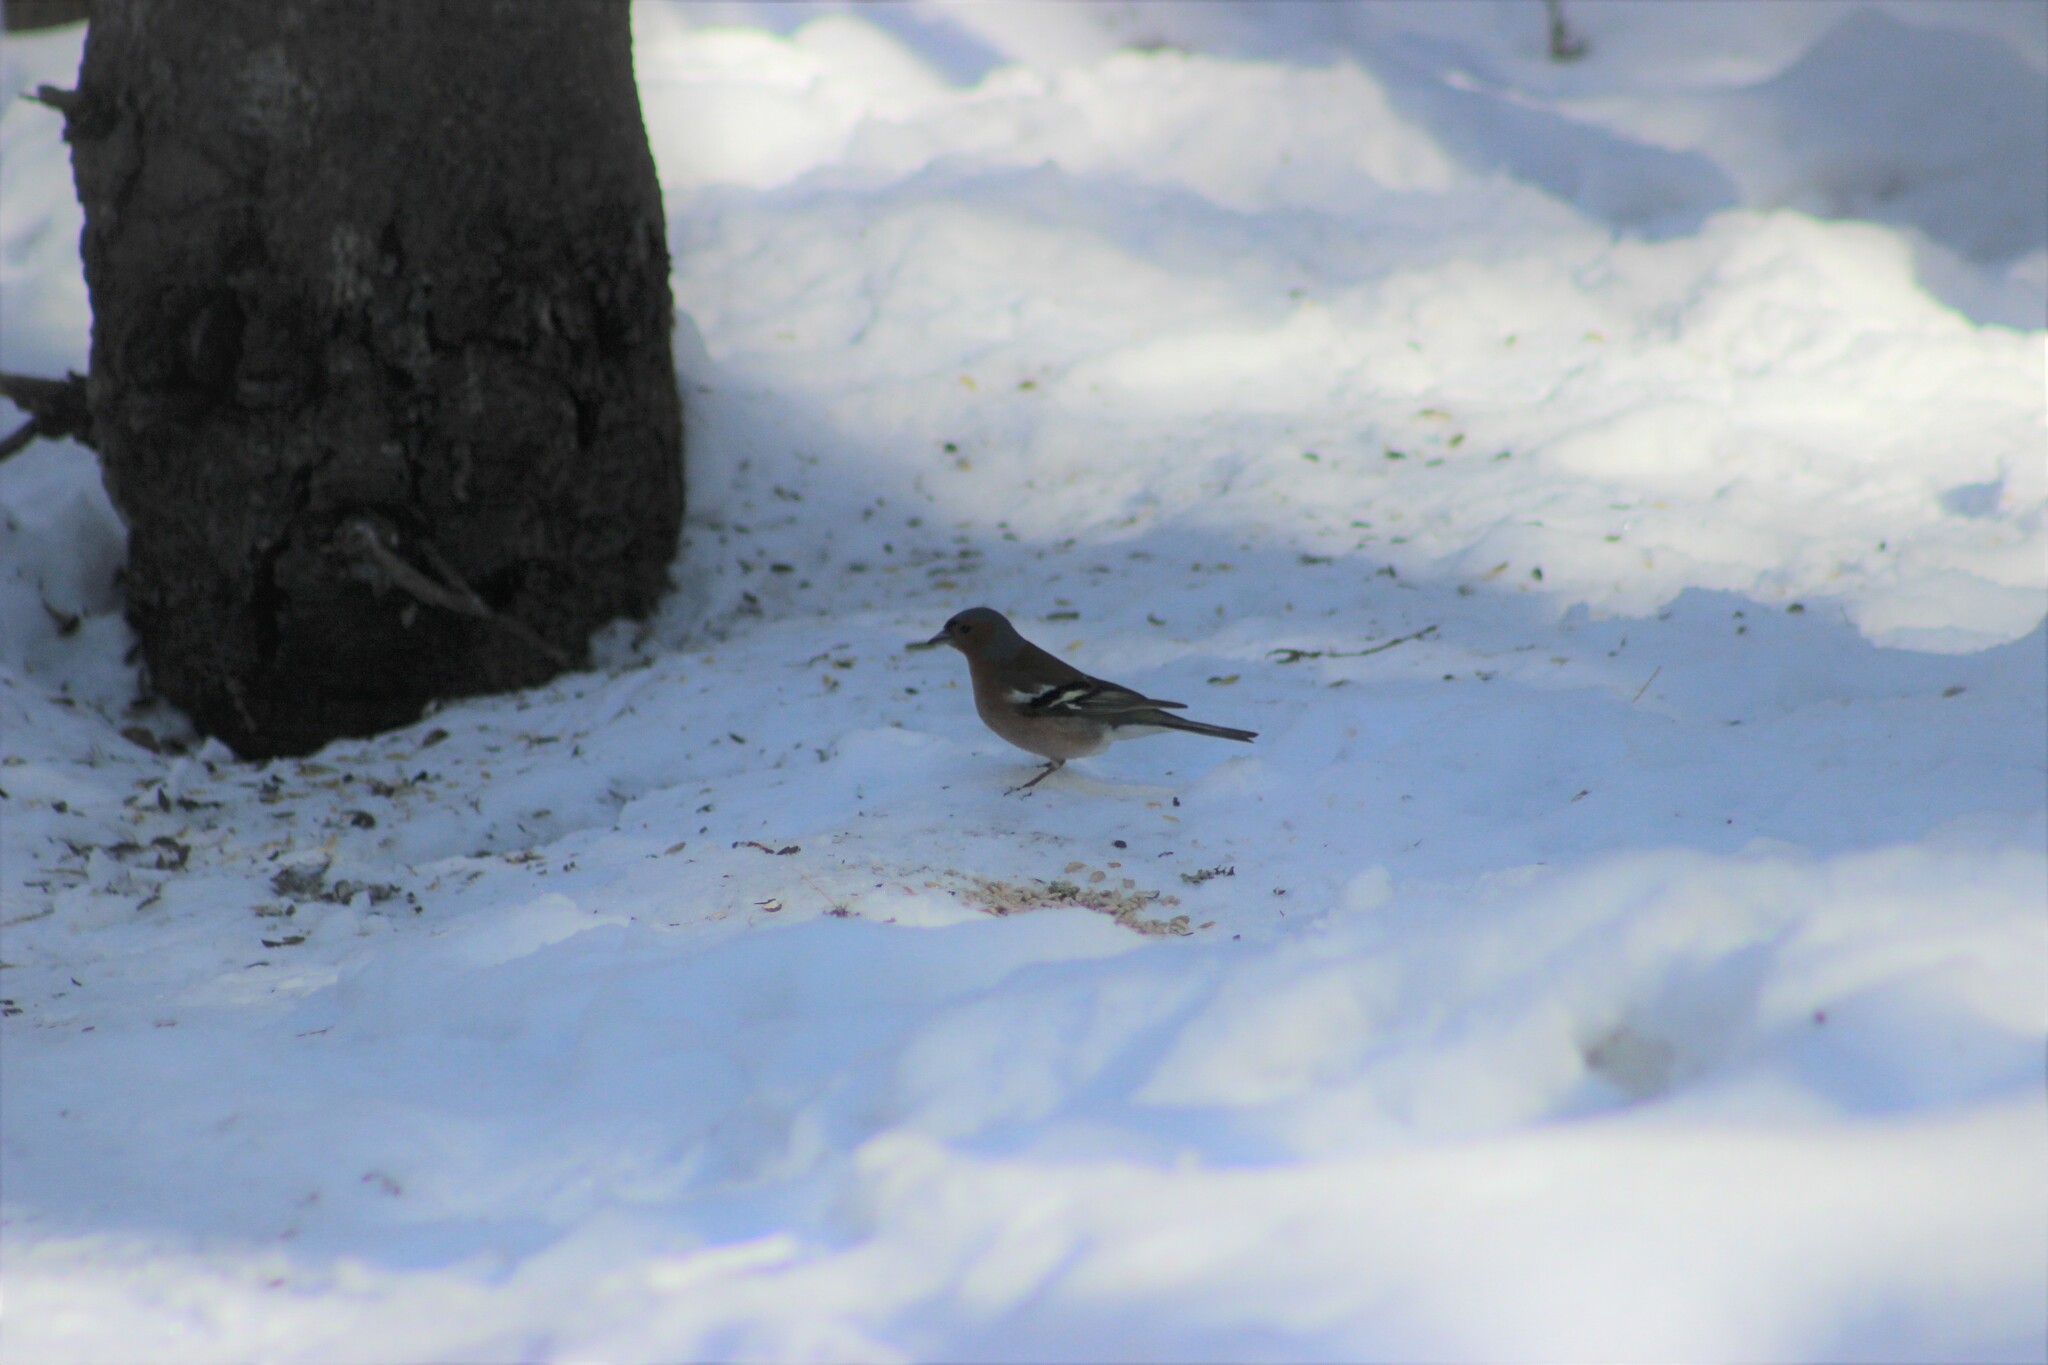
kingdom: Animalia
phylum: Chordata
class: Aves
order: Passeriformes
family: Fringillidae
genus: Fringilla
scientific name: Fringilla coelebs
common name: Common chaffinch
